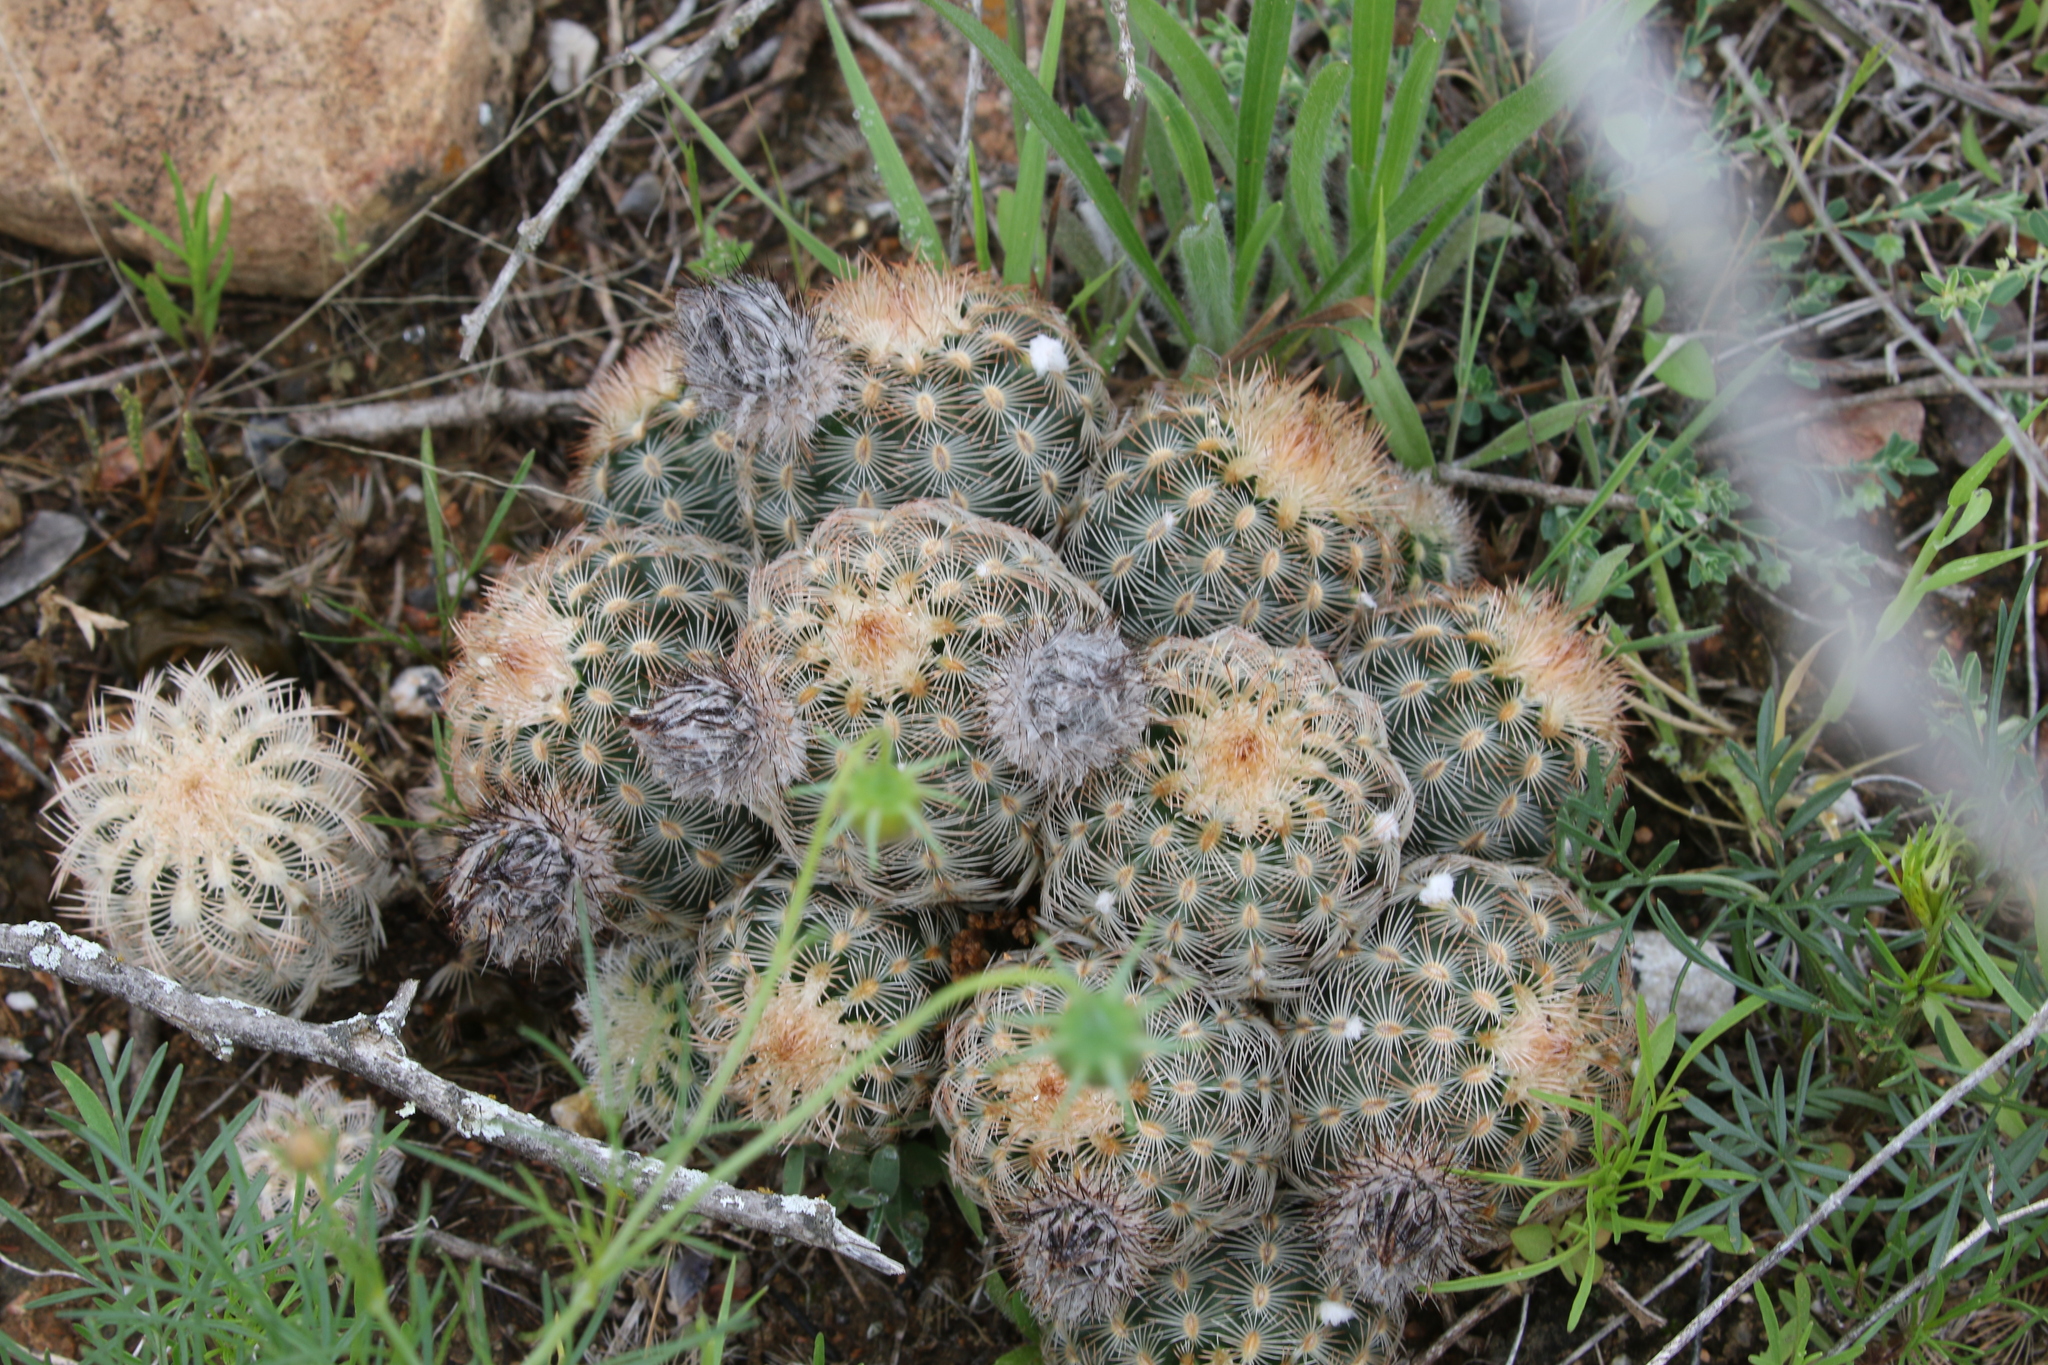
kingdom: Plantae
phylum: Tracheophyta
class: Magnoliopsida
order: Caryophyllales
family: Cactaceae
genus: Echinocereus
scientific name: Echinocereus reichenbachii
